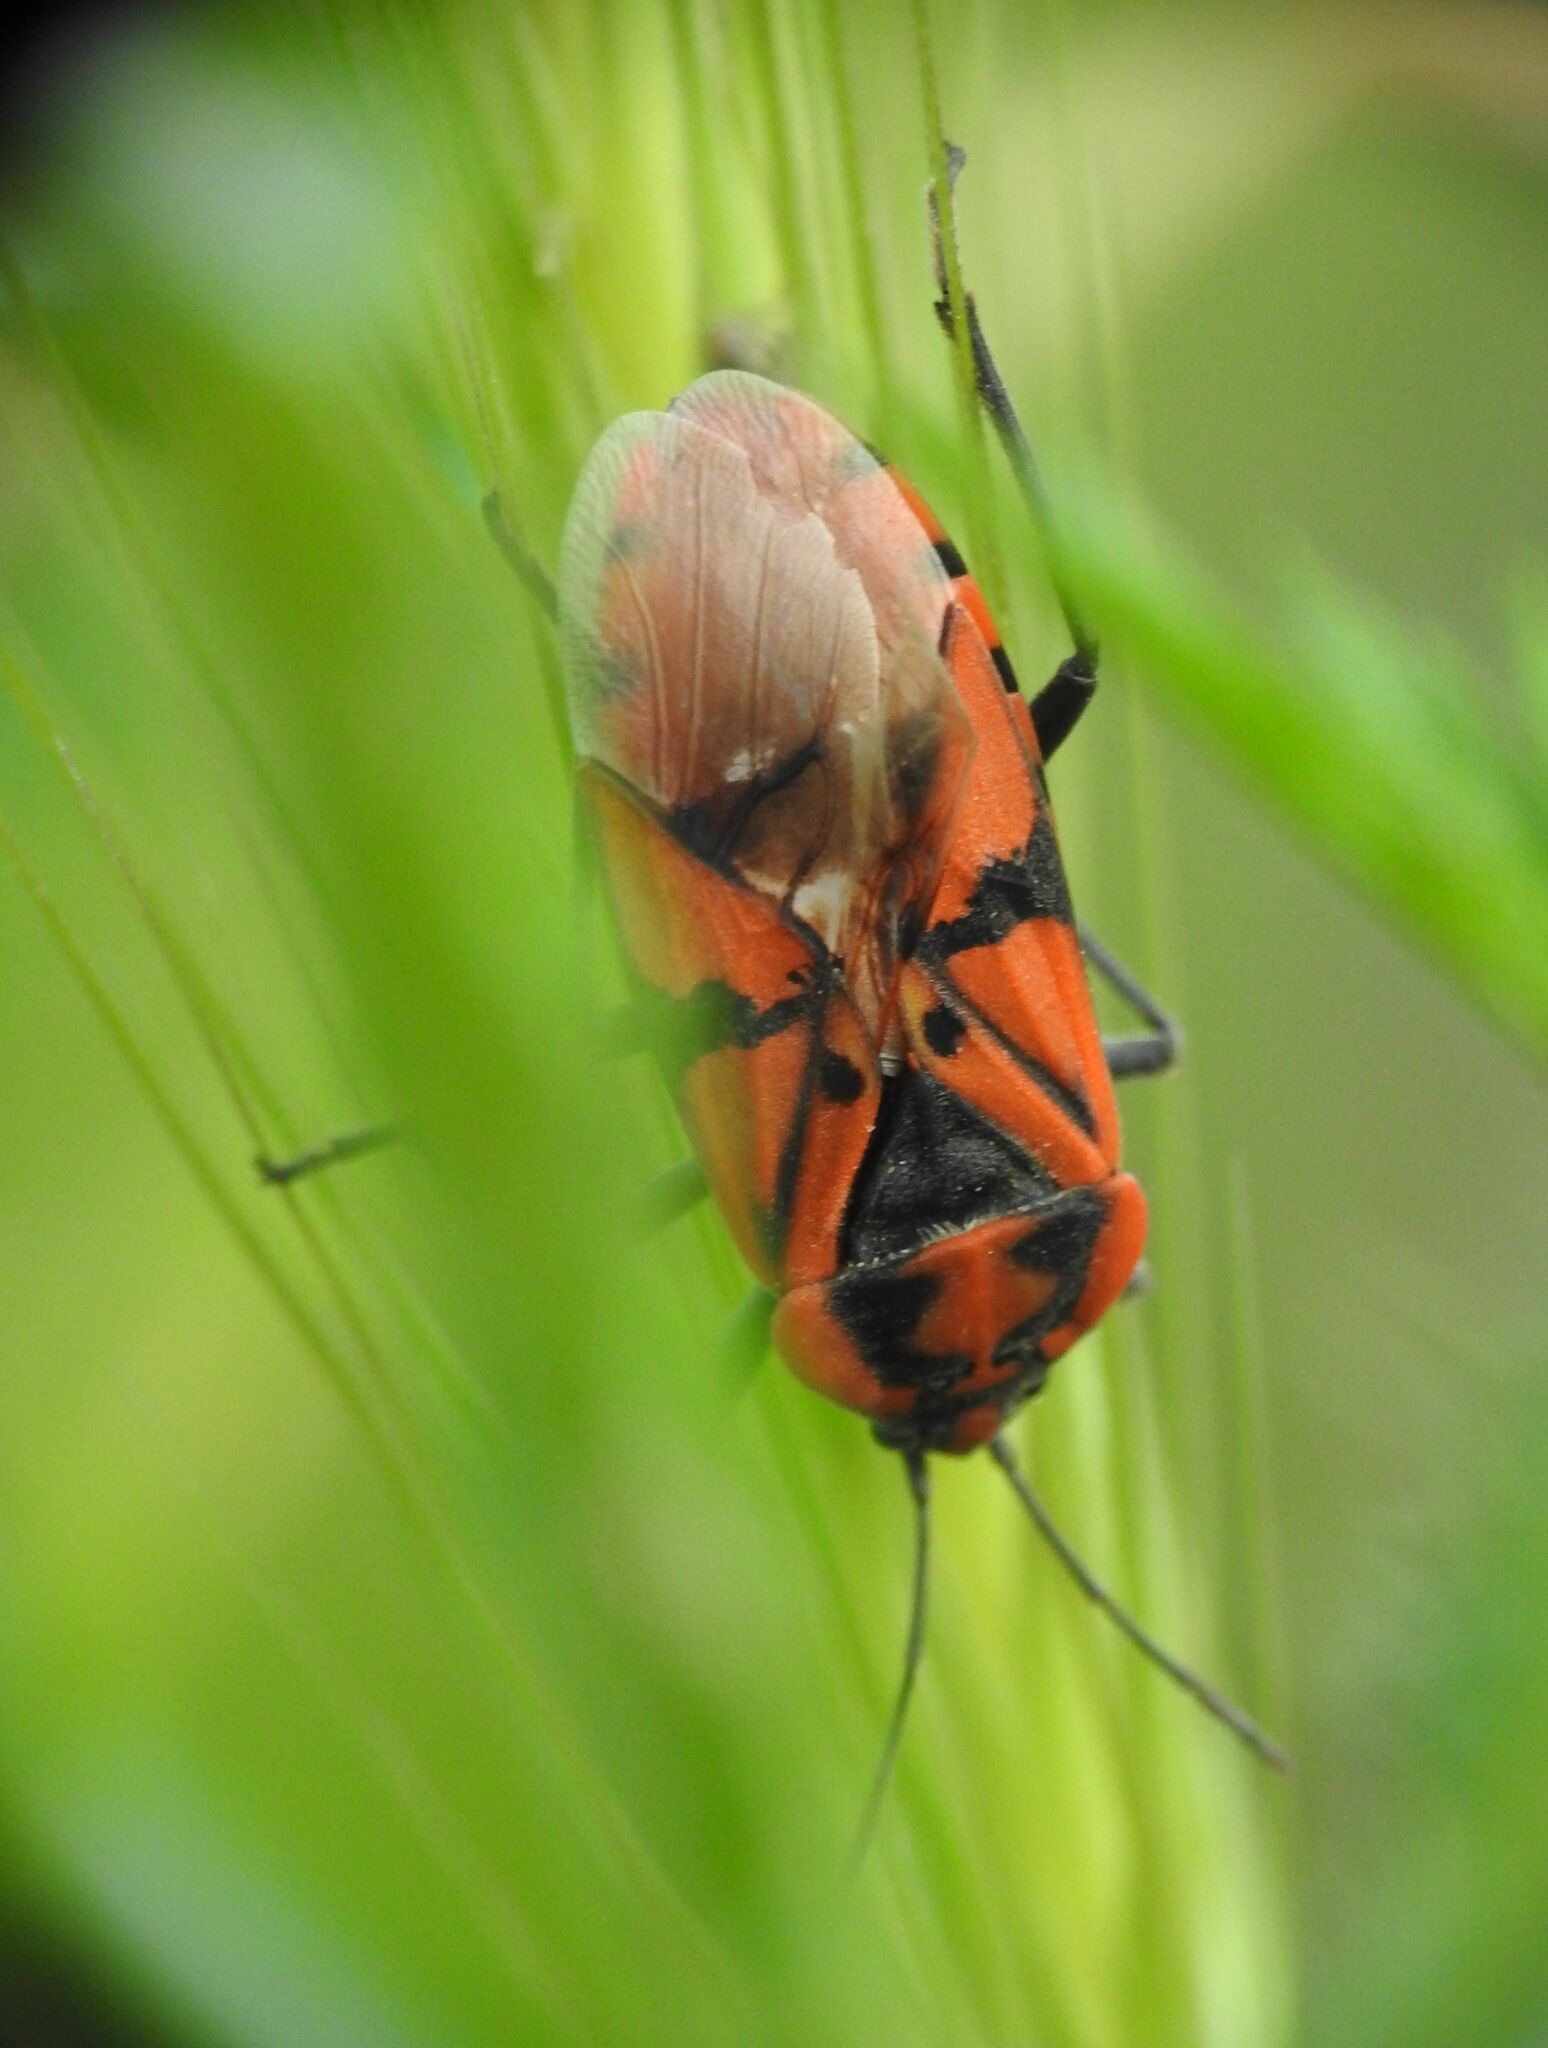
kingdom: Animalia
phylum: Arthropoda
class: Insecta
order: Hemiptera
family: Lygaeidae
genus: Spilostethus
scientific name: Spilostethus pandurus
